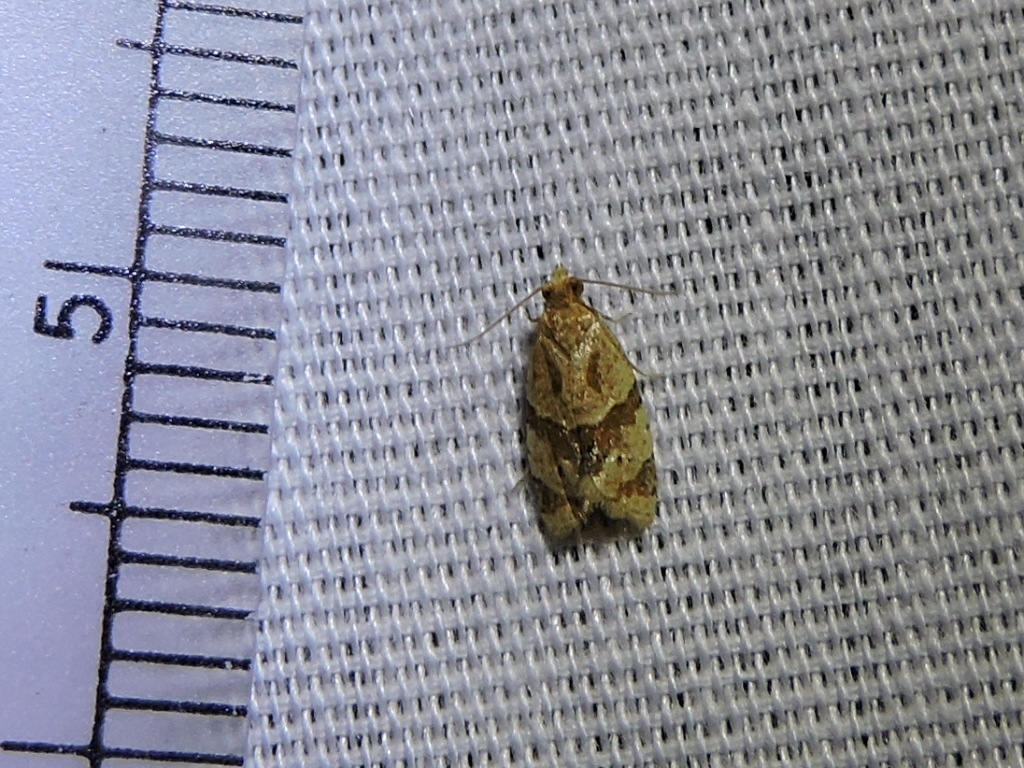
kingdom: Animalia
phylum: Arthropoda
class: Insecta
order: Lepidoptera
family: Tortricidae
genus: Clepsis
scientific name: Clepsis peritana
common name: Garden tortrix
